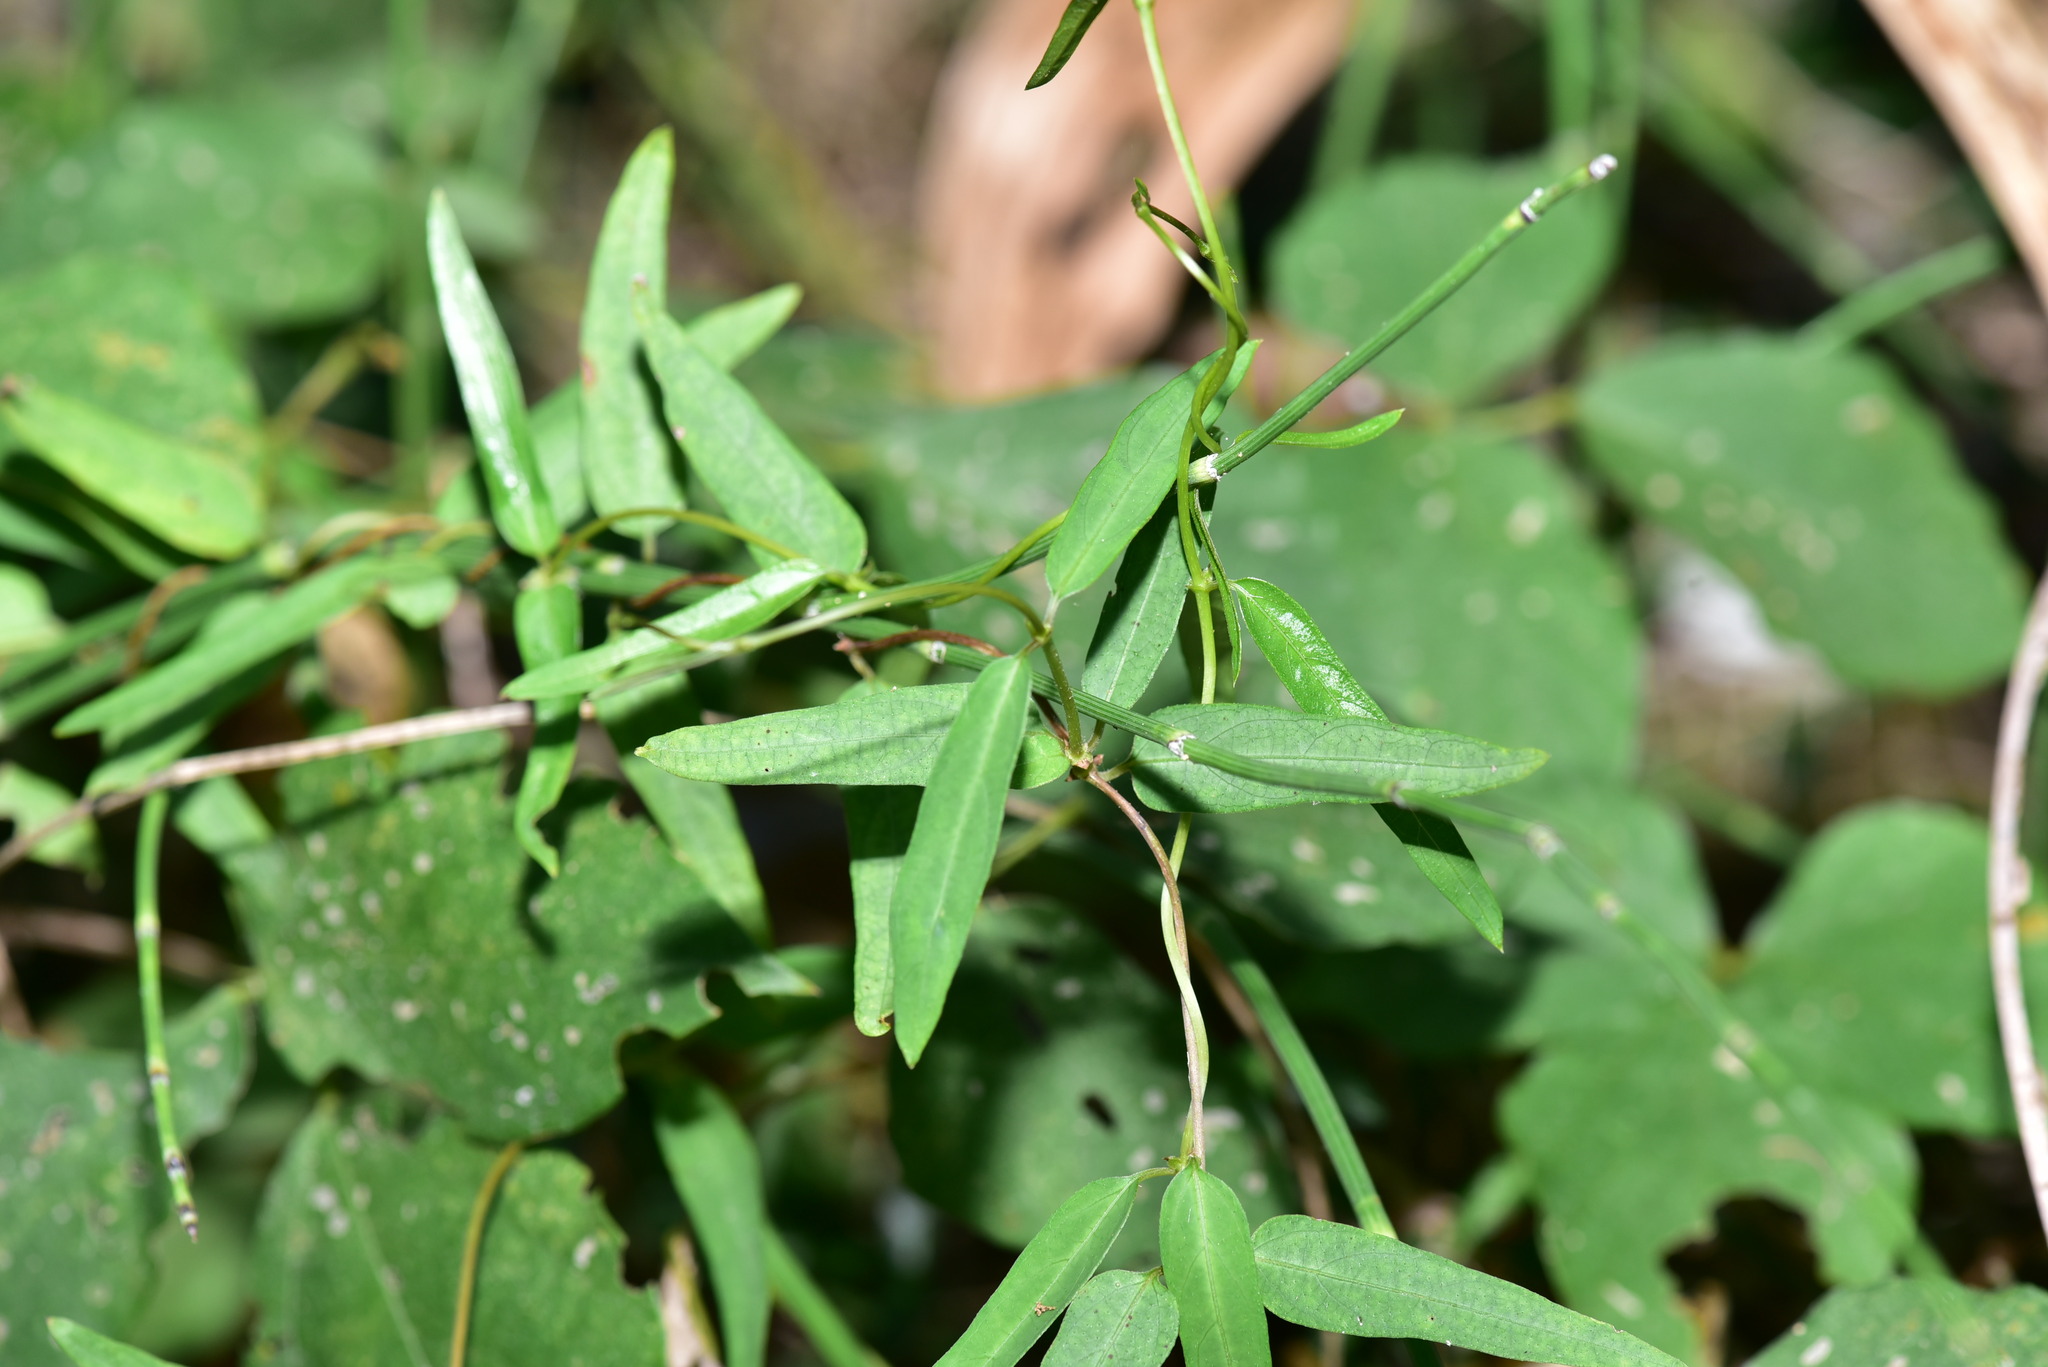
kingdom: Plantae
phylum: Tracheophyta
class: Magnoliopsida
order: Gentianales
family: Rubiaceae
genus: Paederia
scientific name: Paederia foetida
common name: Stinkvine
